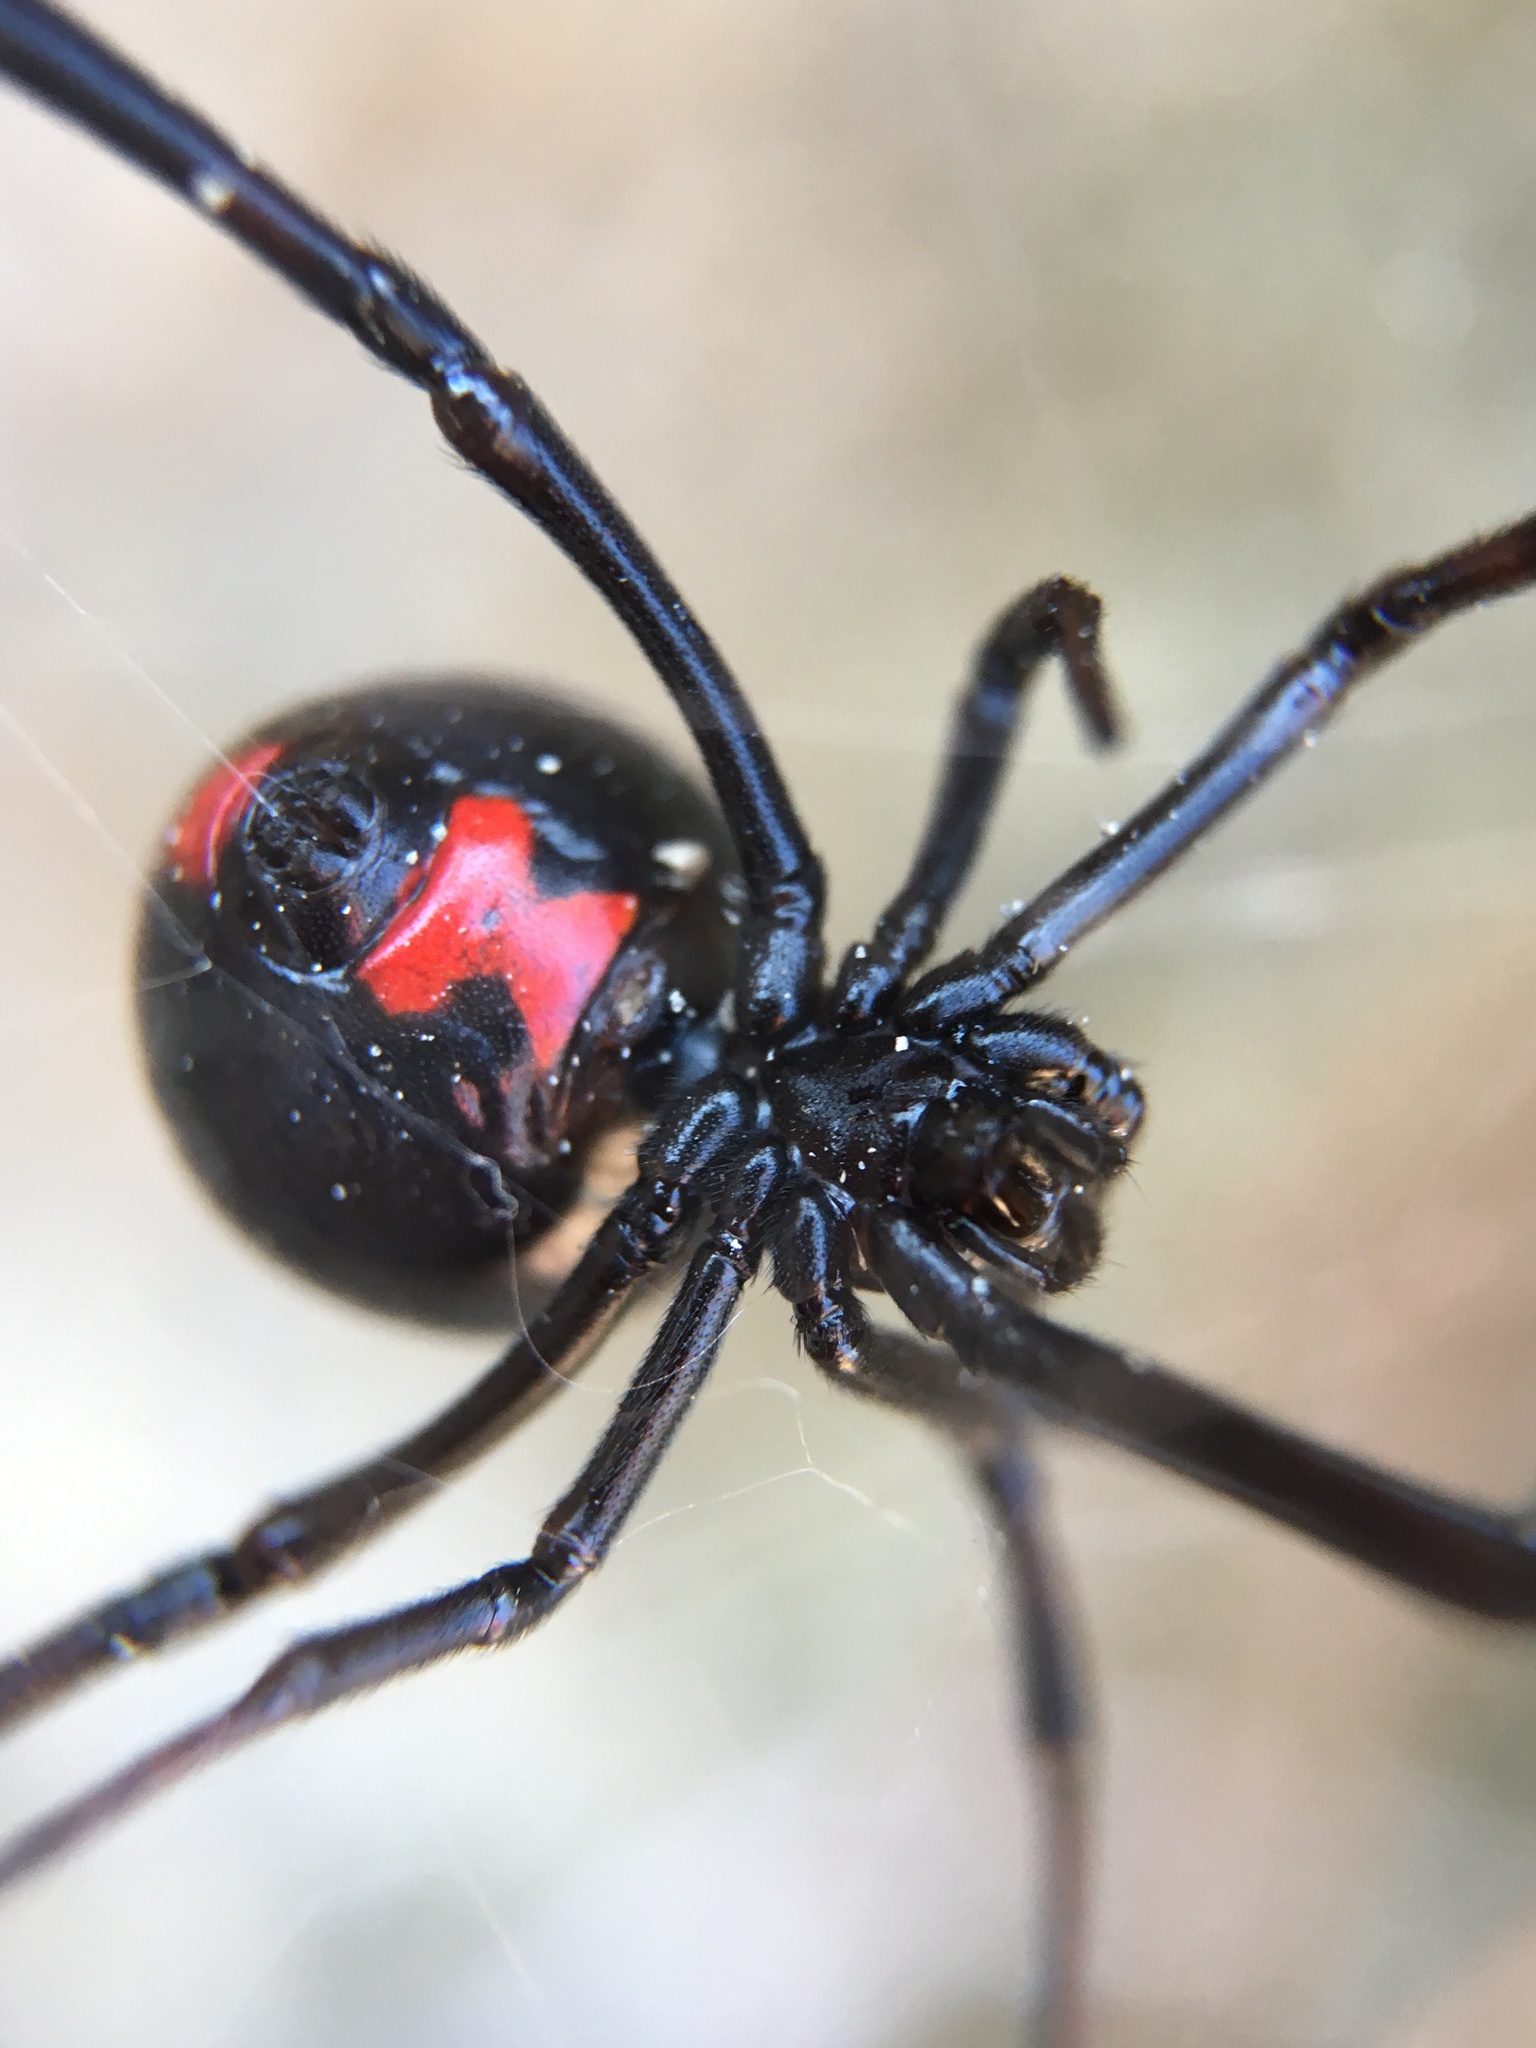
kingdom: Animalia
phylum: Arthropoda
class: Arachnida
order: Araneae
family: Theridiidae
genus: Latrodectus
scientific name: Latrodectus mactans
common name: Cobweb spiders
